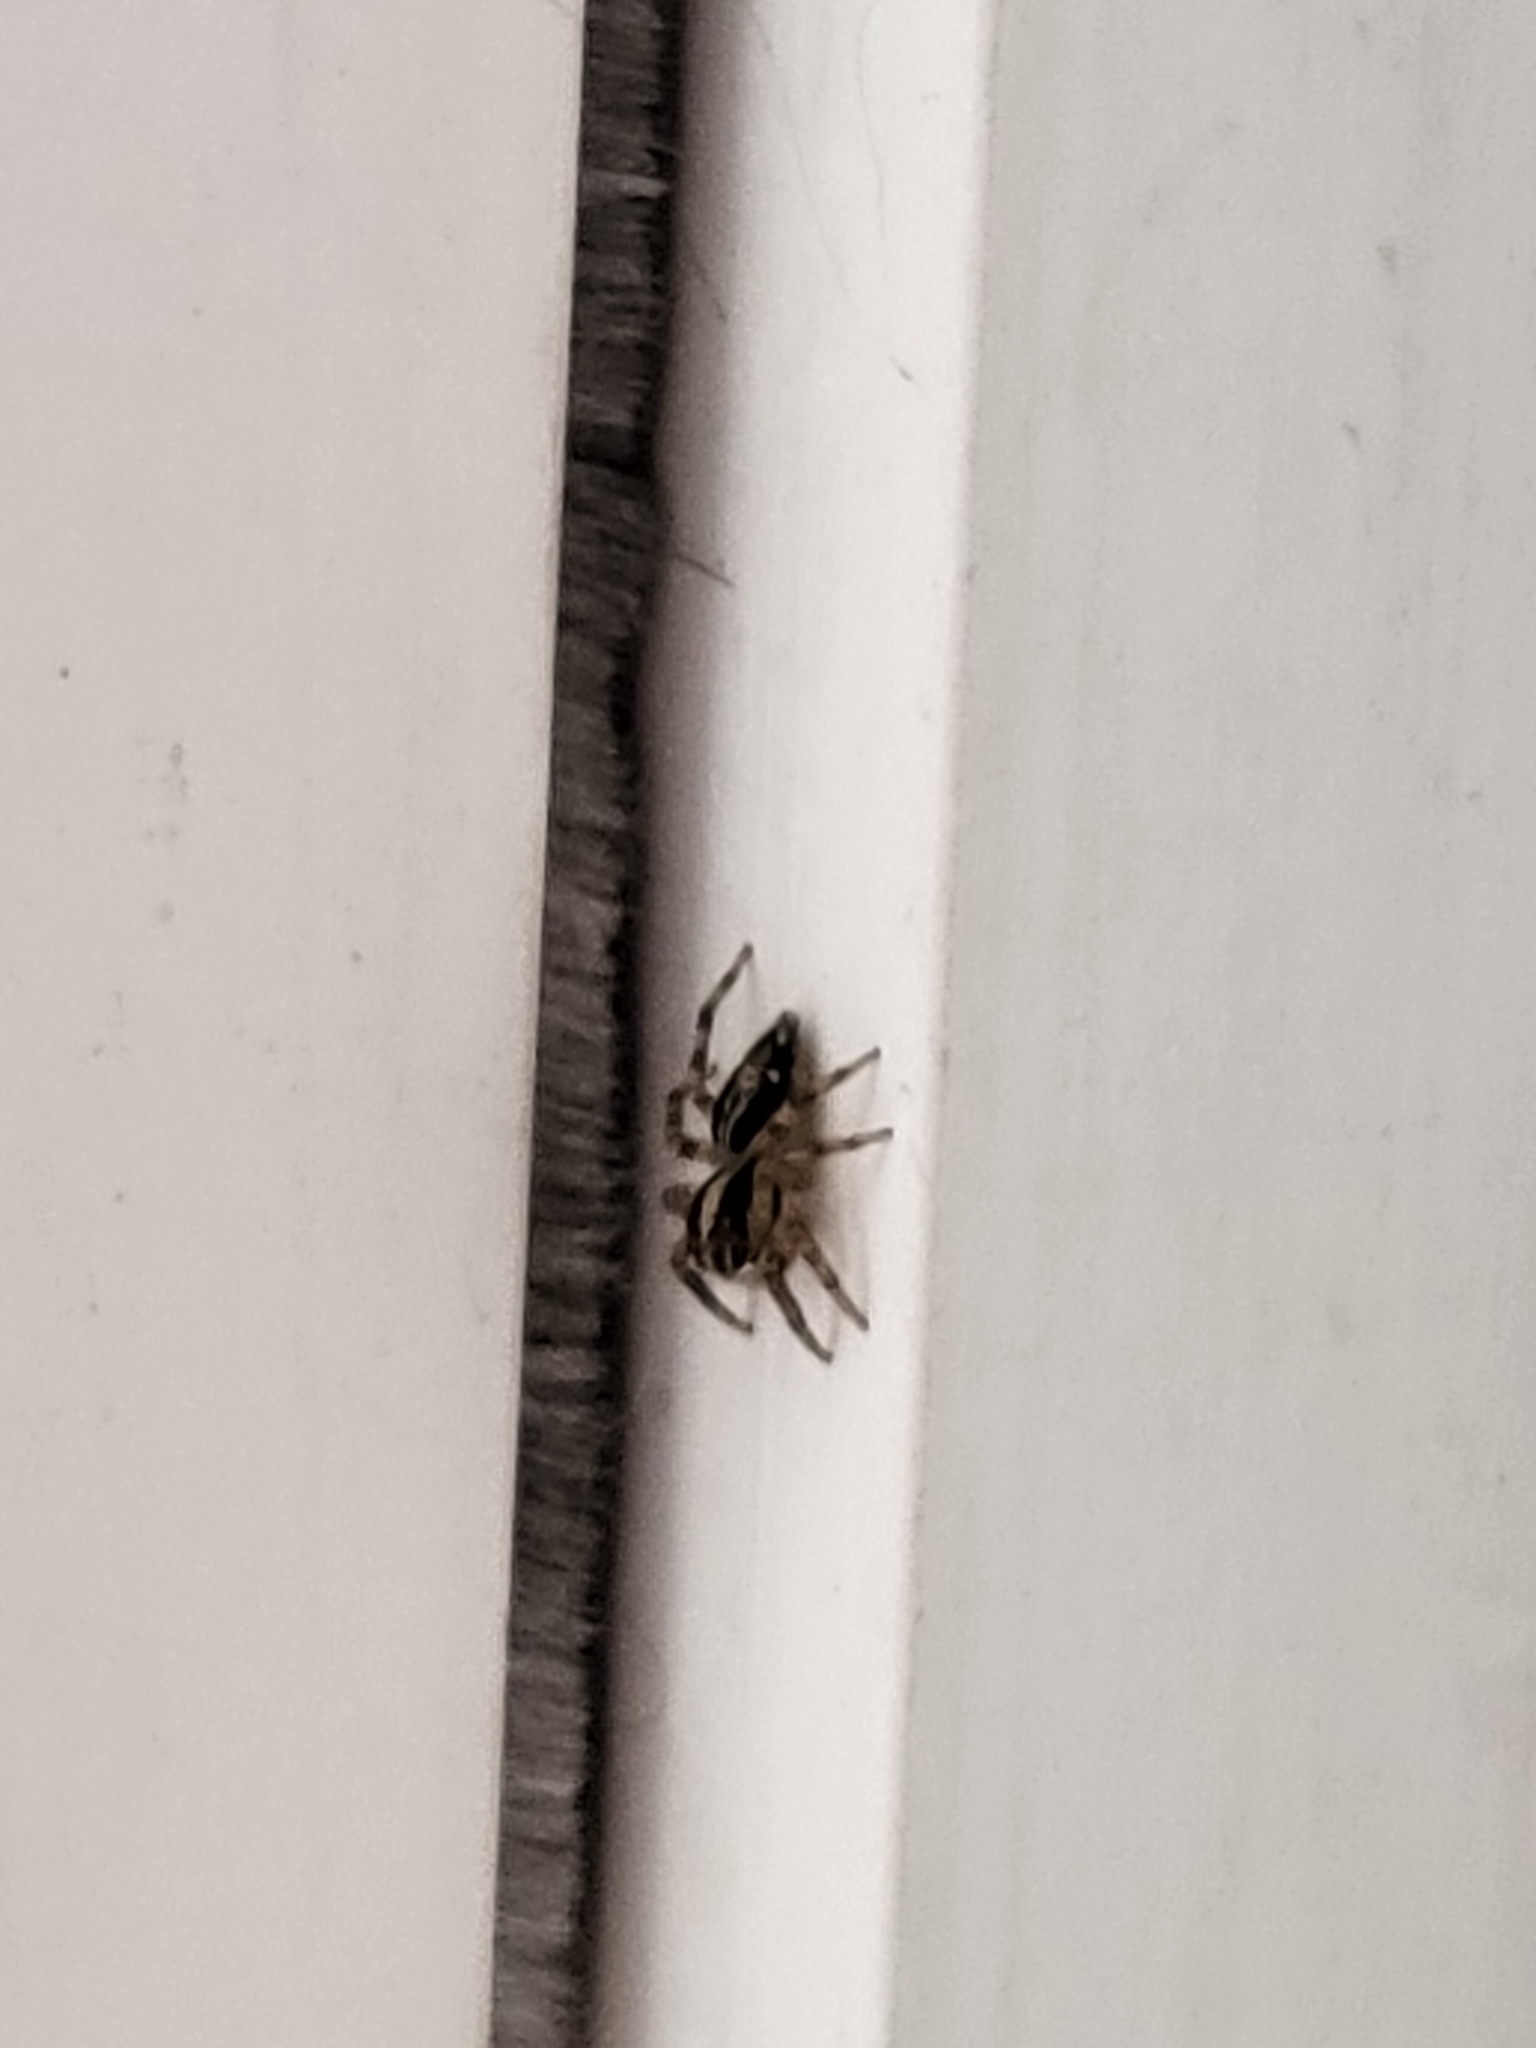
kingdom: Animalia
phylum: Arthropoda
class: Arachnida
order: Araneae
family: Salticidae
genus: Plexippus
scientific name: Plexippus paykulli
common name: Pantropical jumper
